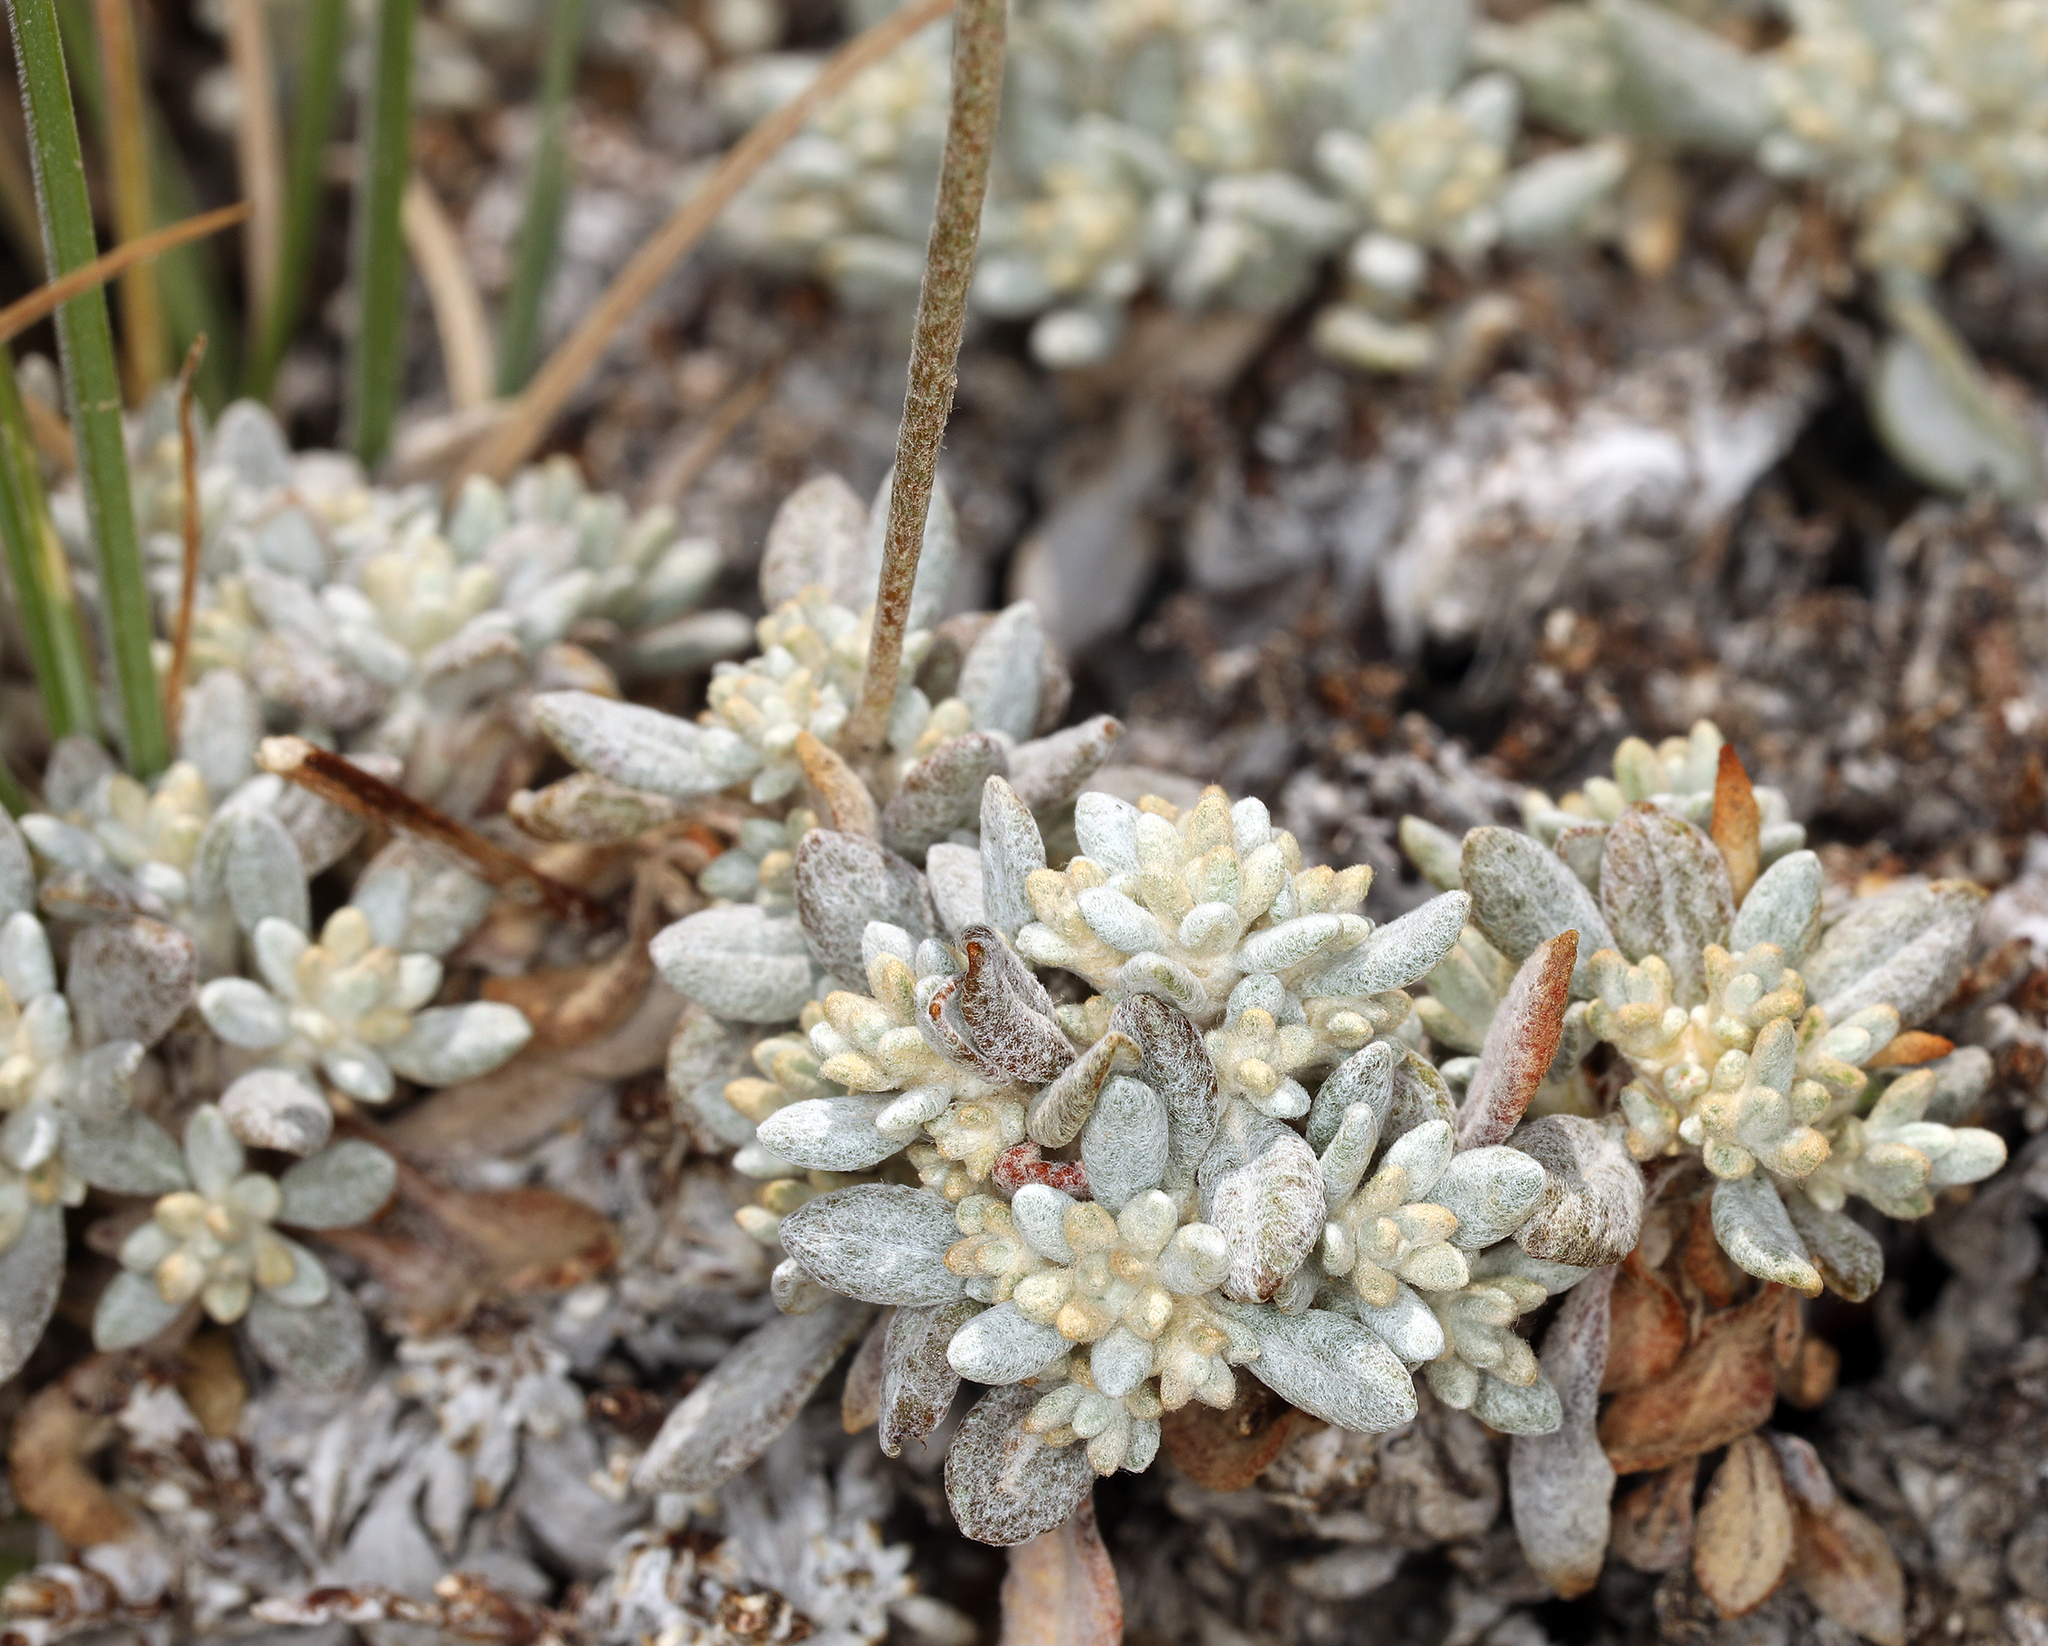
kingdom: Plantae
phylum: Tracheophyta
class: Magnoliopsida
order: Caryophyllales
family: Polygonaceae
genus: Eriogonum
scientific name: Eriogonum wrightii
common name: Bastard-sage
